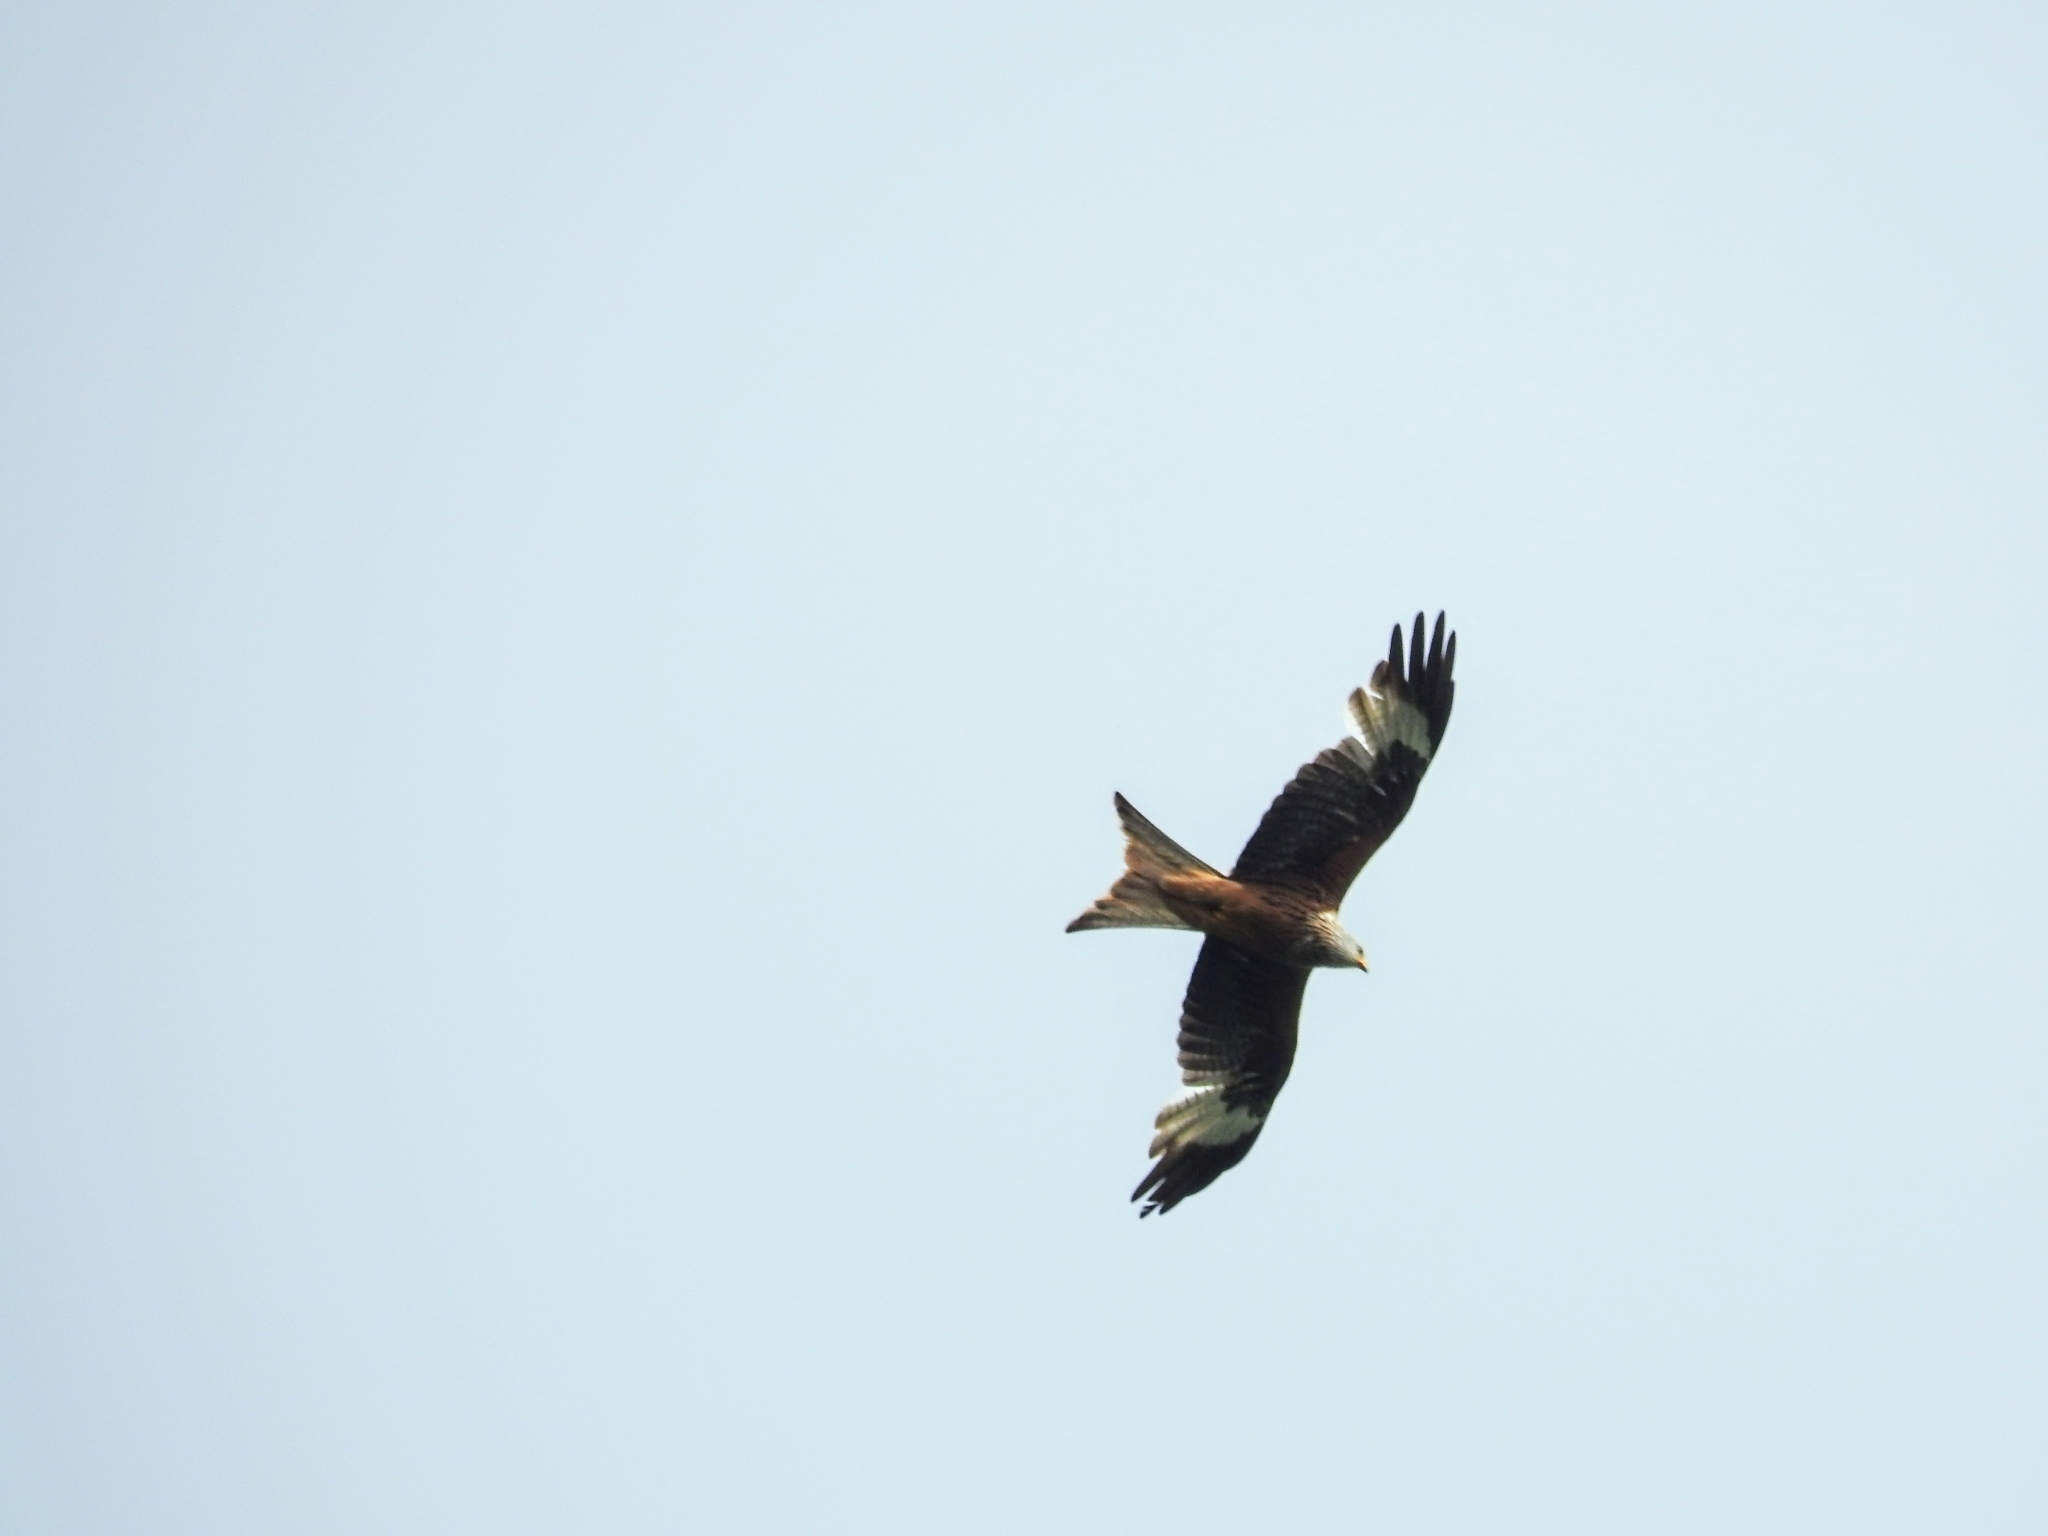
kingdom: Animalia
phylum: Chordata
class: Aves
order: Accipitriformes
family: Accipitridae
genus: Milvus
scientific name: Milvus milvus
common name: Red kite
